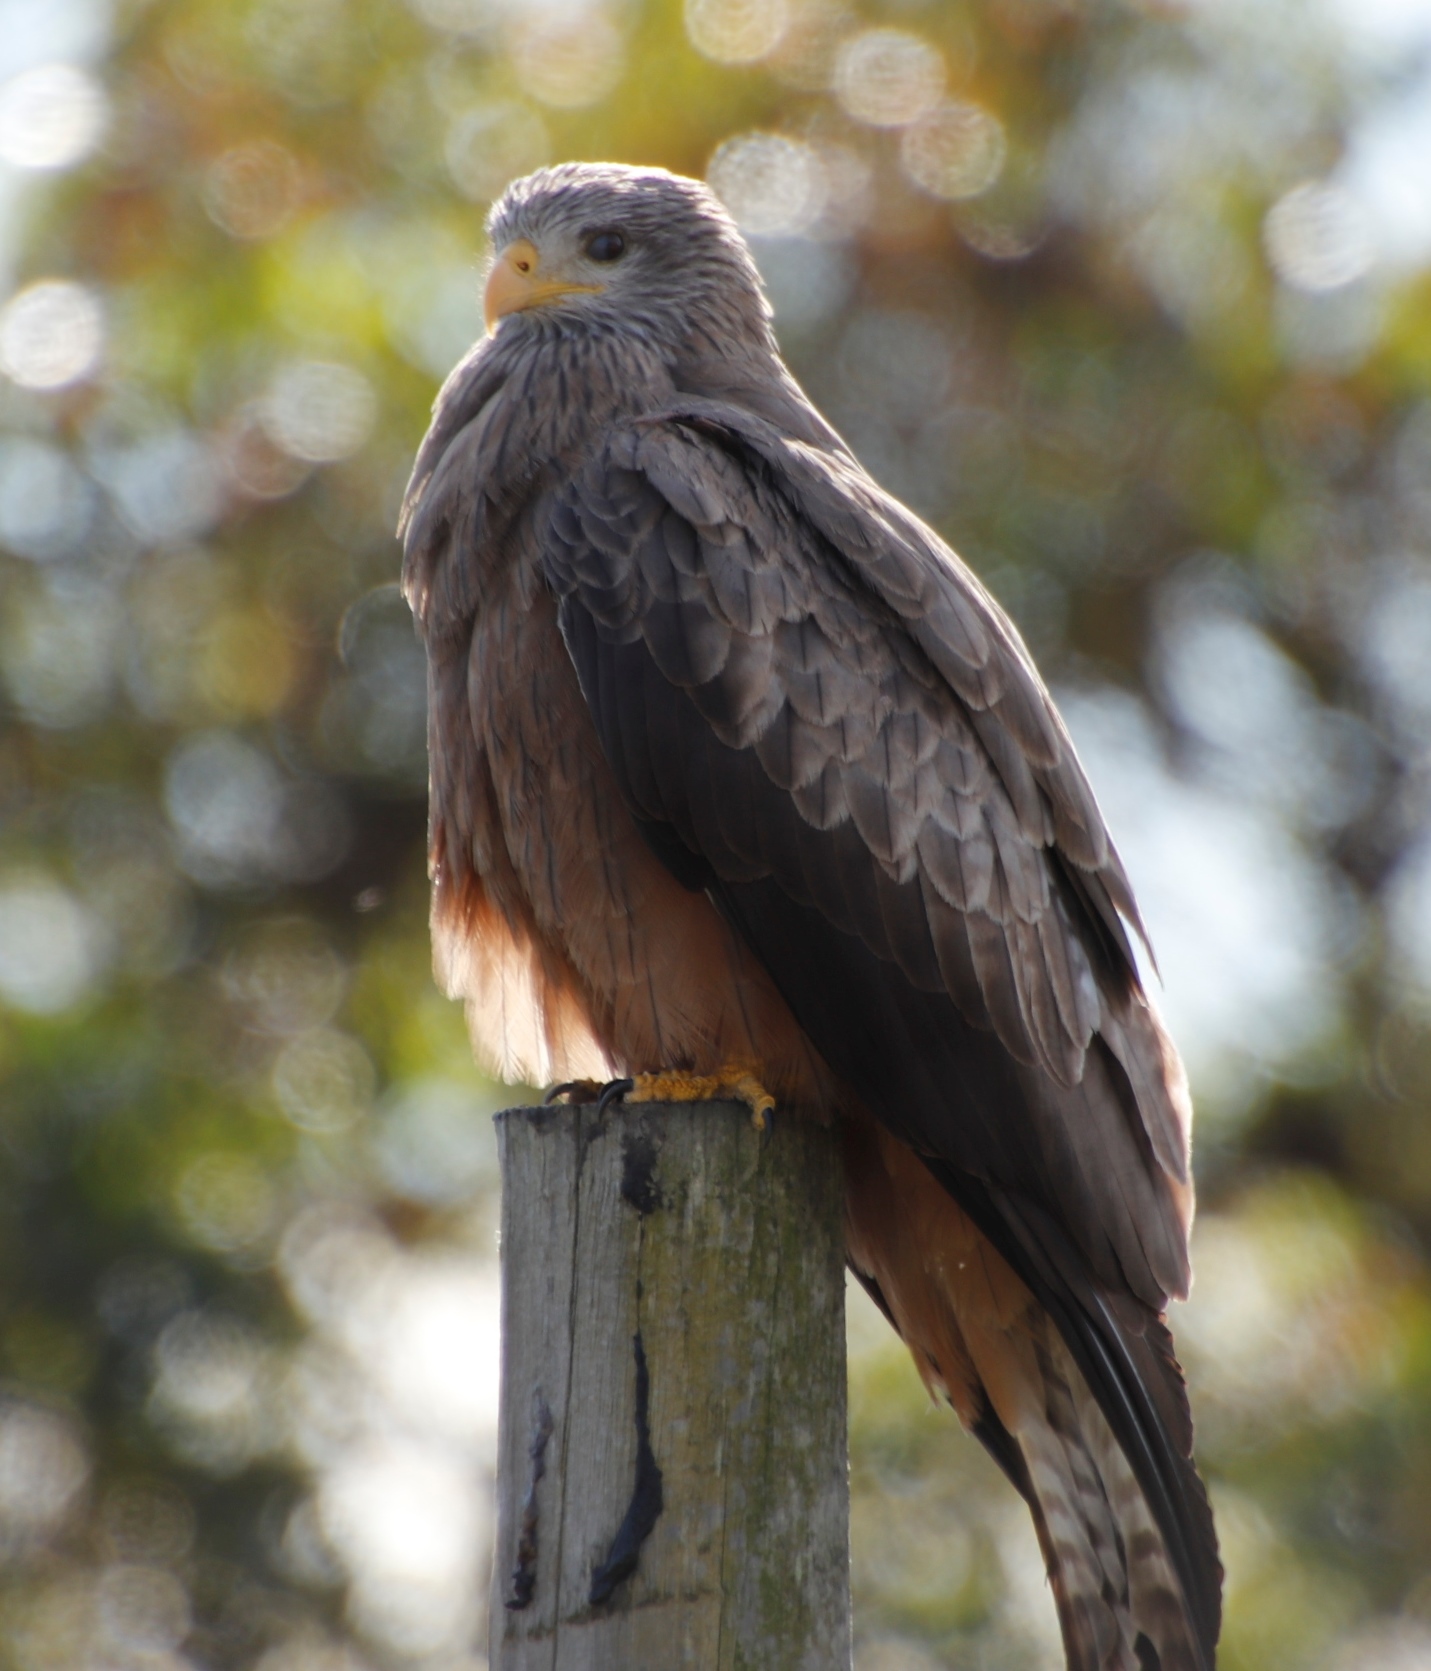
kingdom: Animalia
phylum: Chordata
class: Aves
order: Accipitriformes
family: Accipitridae
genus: Milvus
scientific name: Milvus migrans
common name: Black kite
